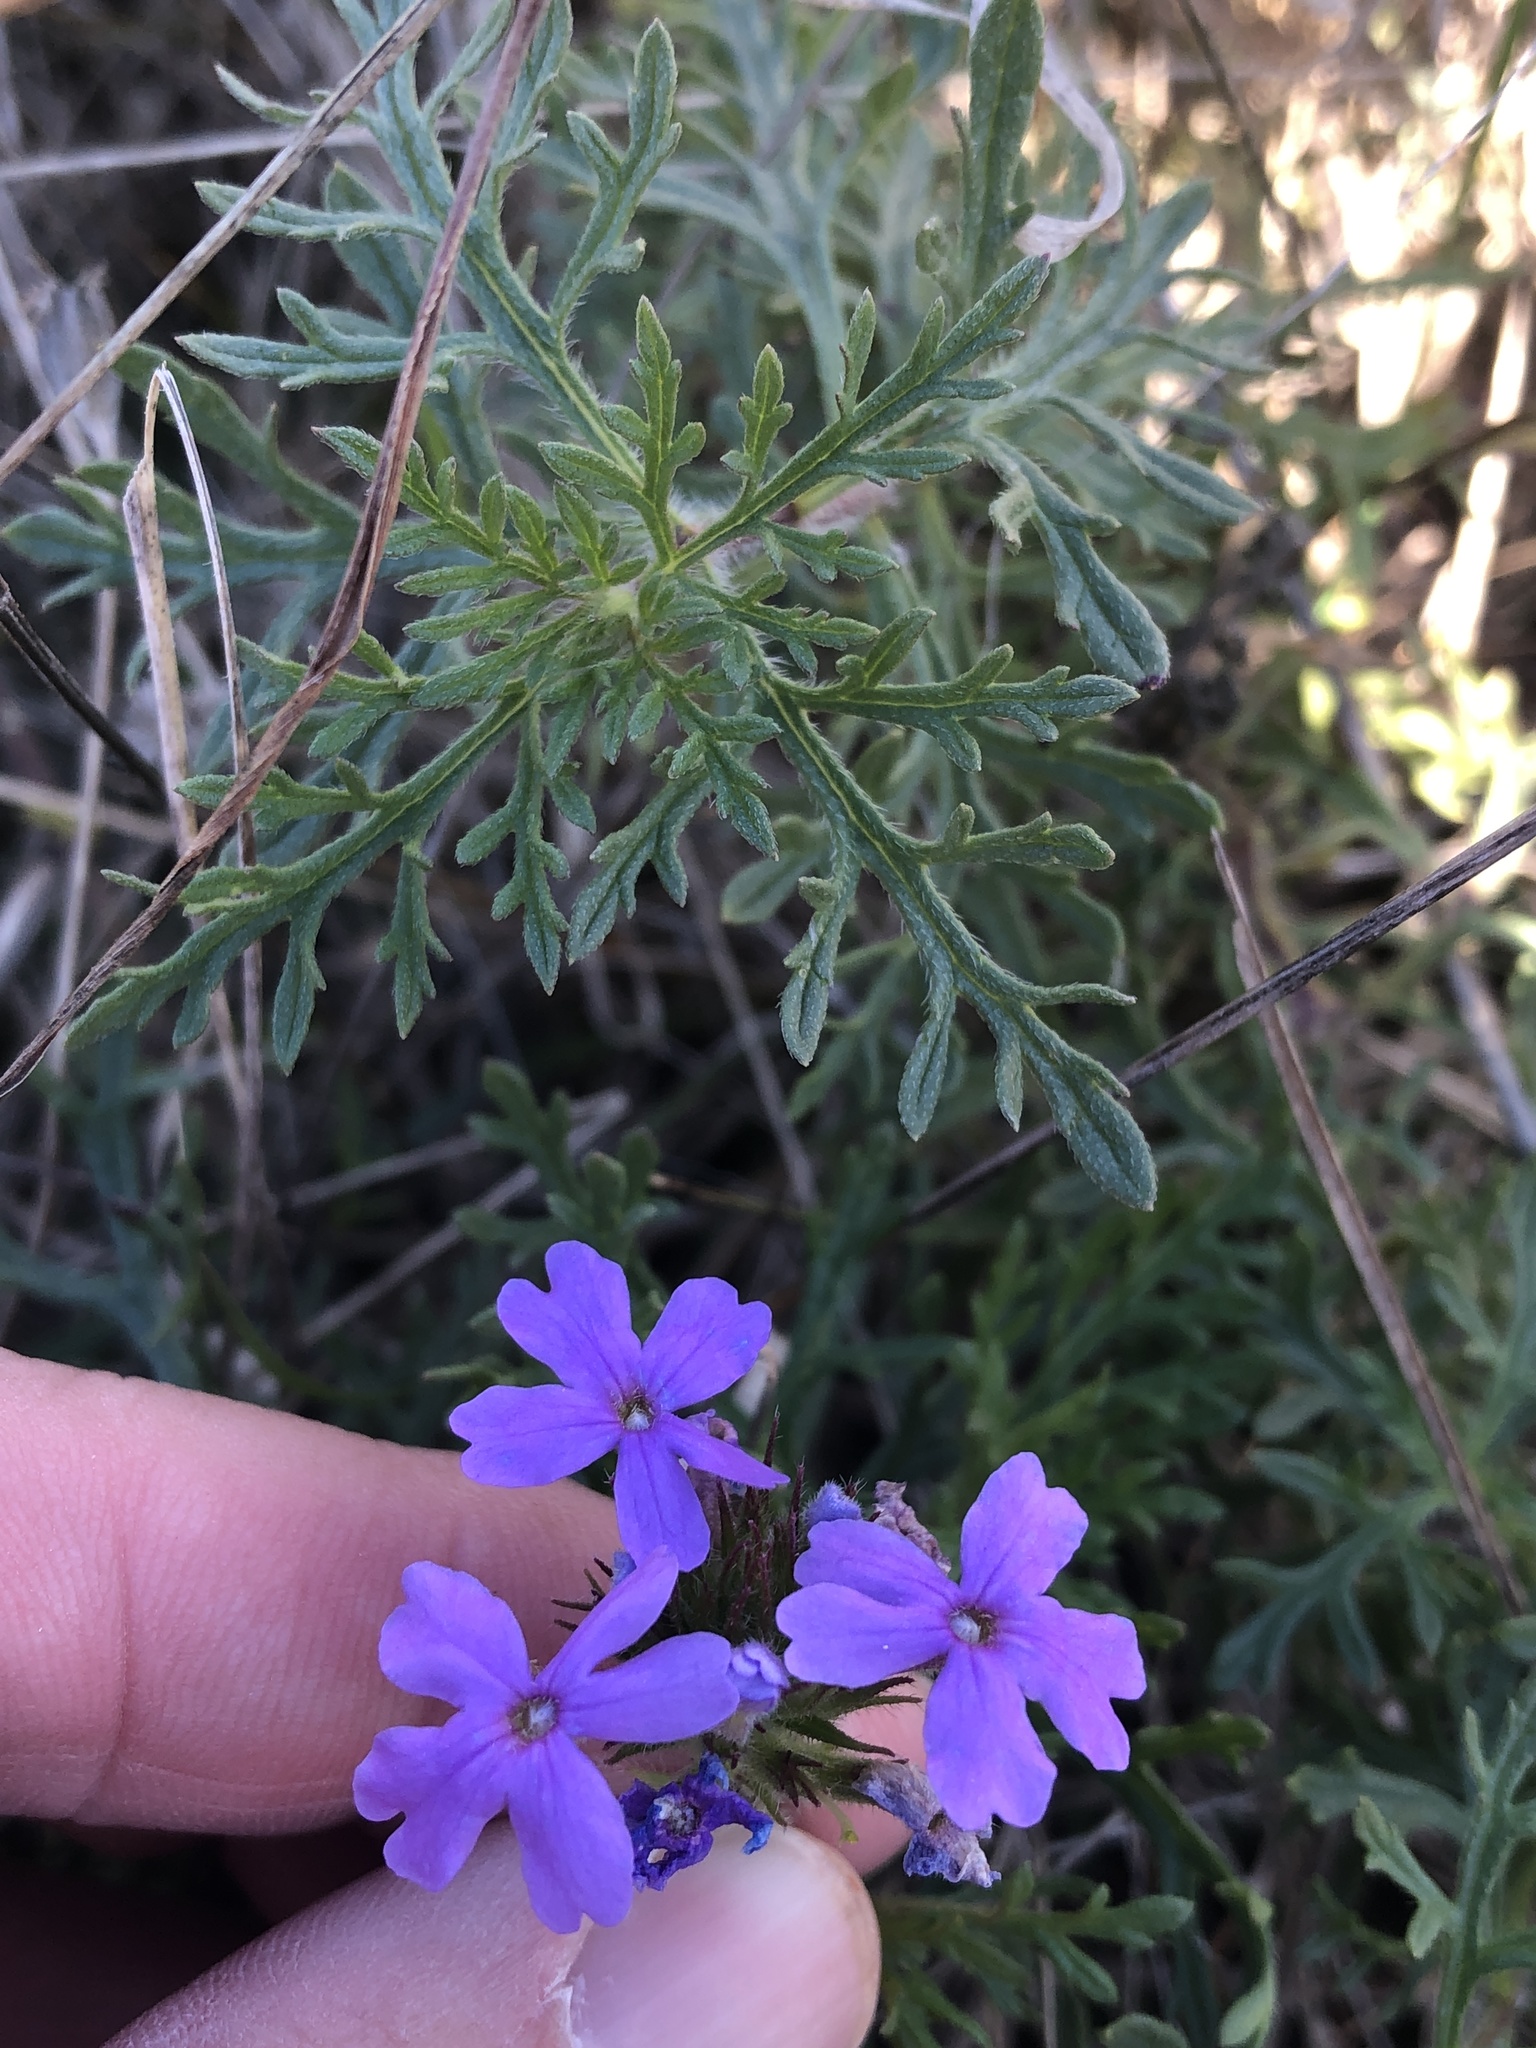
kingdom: Plantae
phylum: Tracheophyta
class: Magnoliopsida
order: Lamiales
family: Verbenaceae
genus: Verbena
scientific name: Verbena bipinnatifida
